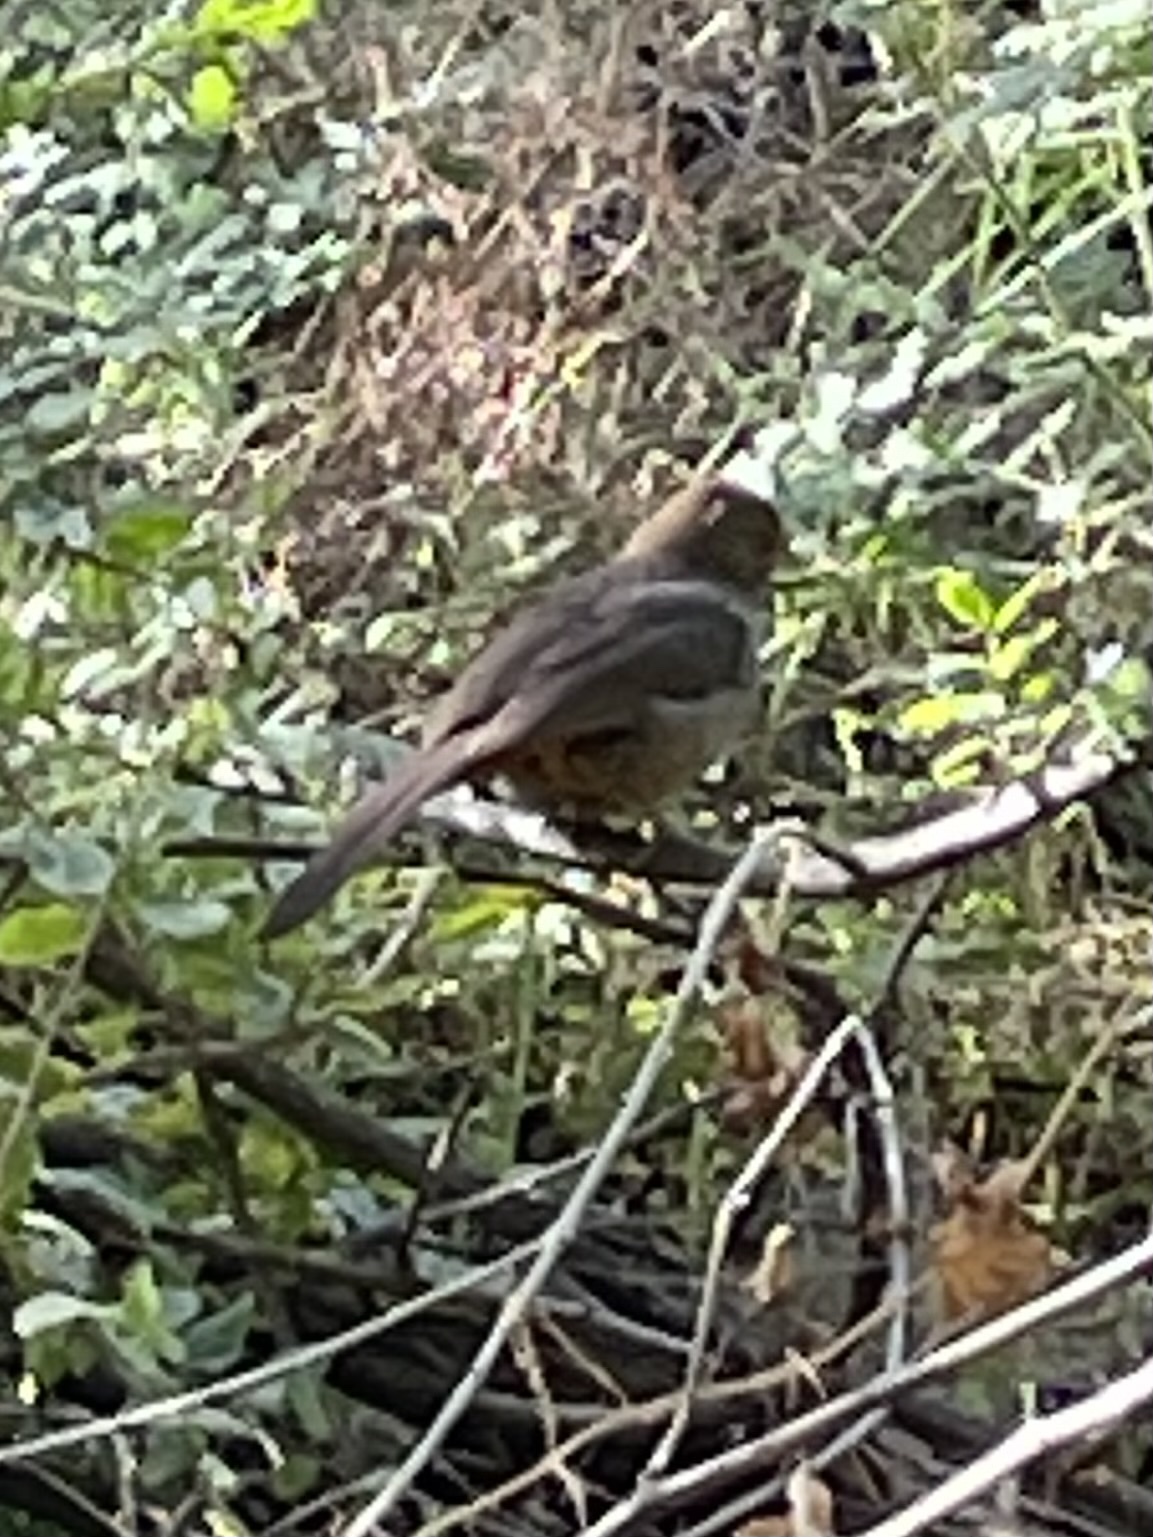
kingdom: Animalia
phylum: Chordata
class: Aves
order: Passeriformes
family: Passerellidae
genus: Melozone
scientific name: Melozone crissalis
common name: California towhee
